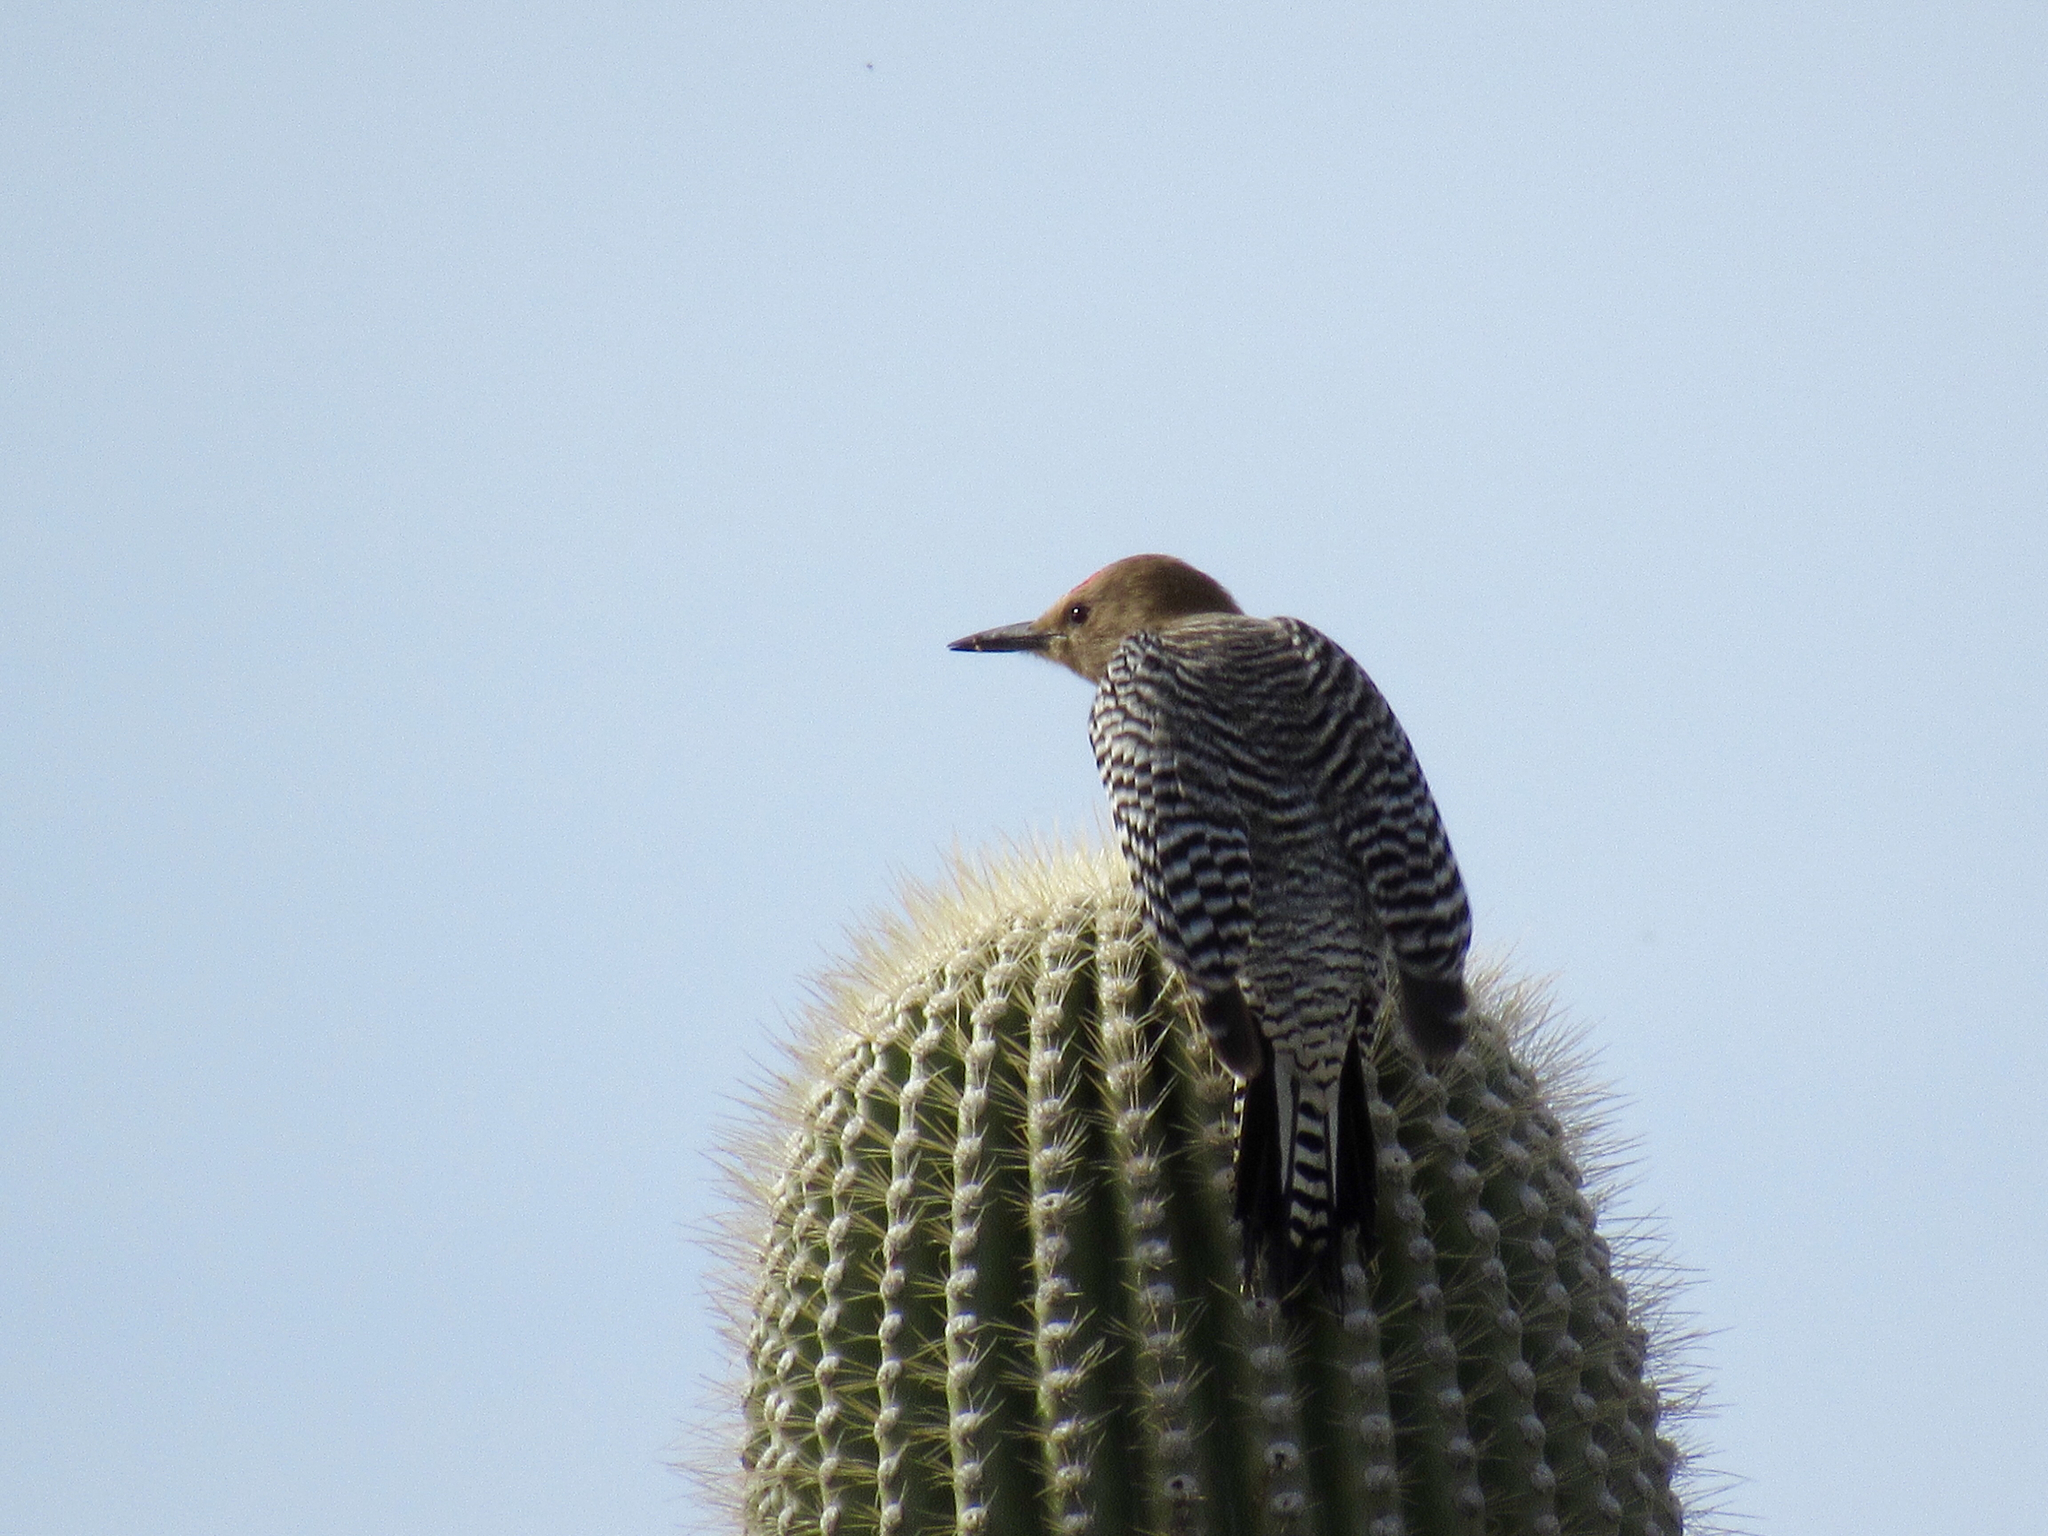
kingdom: Animalia
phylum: Chordata
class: Aves
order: Piciformes
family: Picidae
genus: Melanerpes
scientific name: Melanerpes uropygialis
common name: Gila woodpecker
